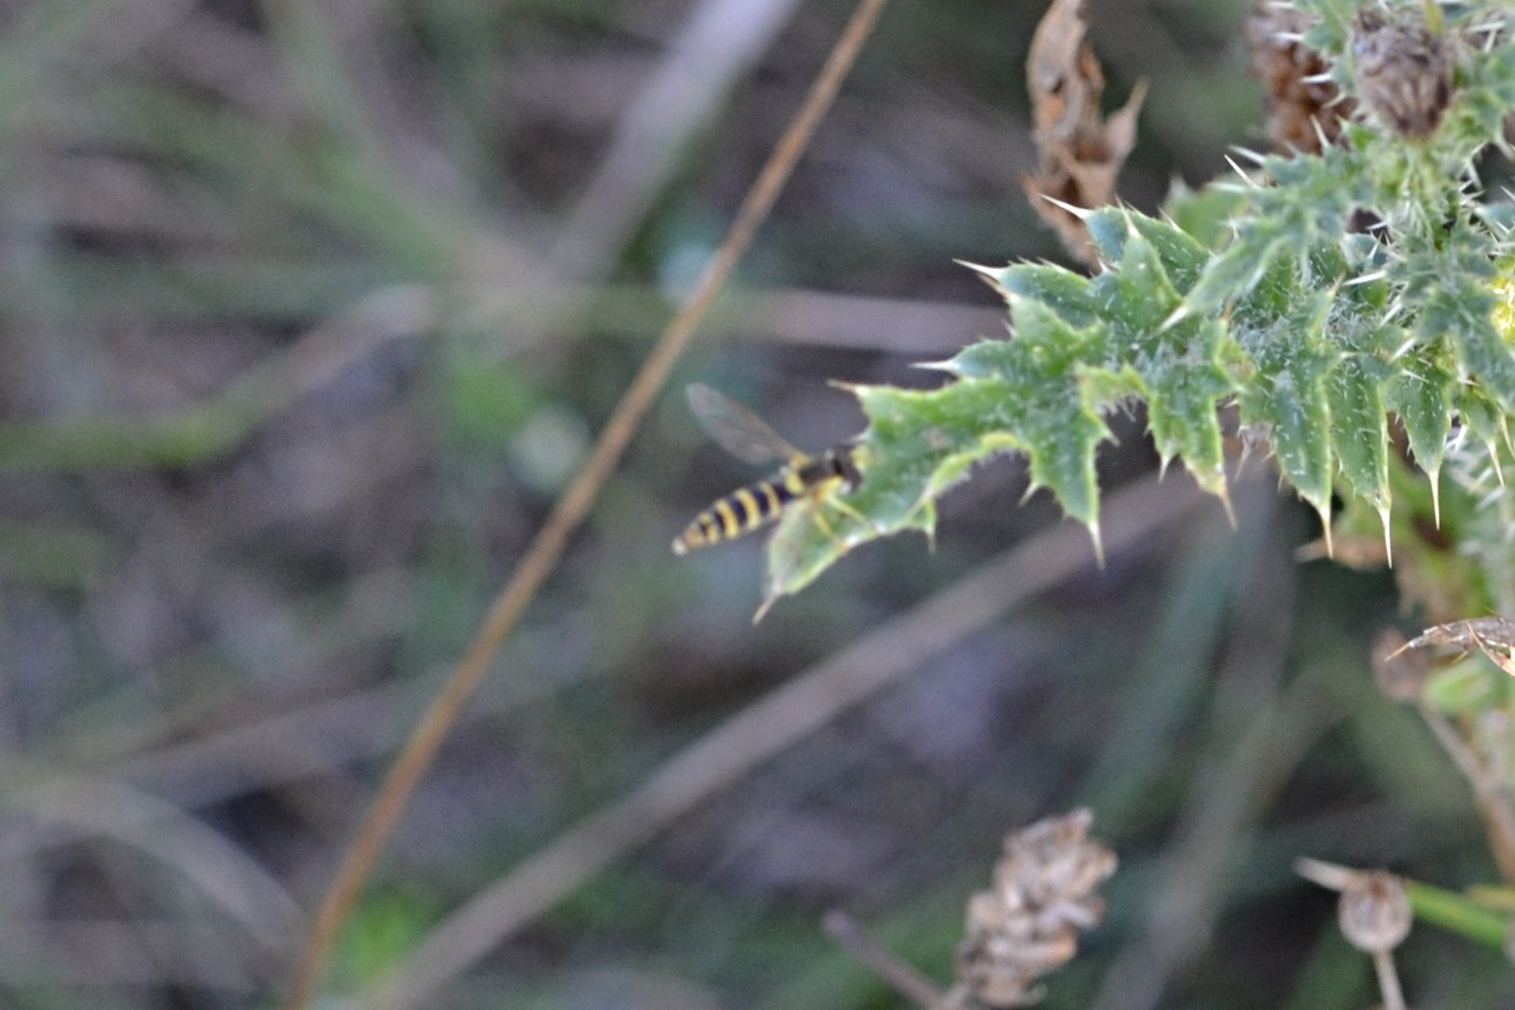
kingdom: Animalia
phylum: Arthropoda
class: Insecta
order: Diptera
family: Syrphidae
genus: Sphaerophoria
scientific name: Sphaerophoria
